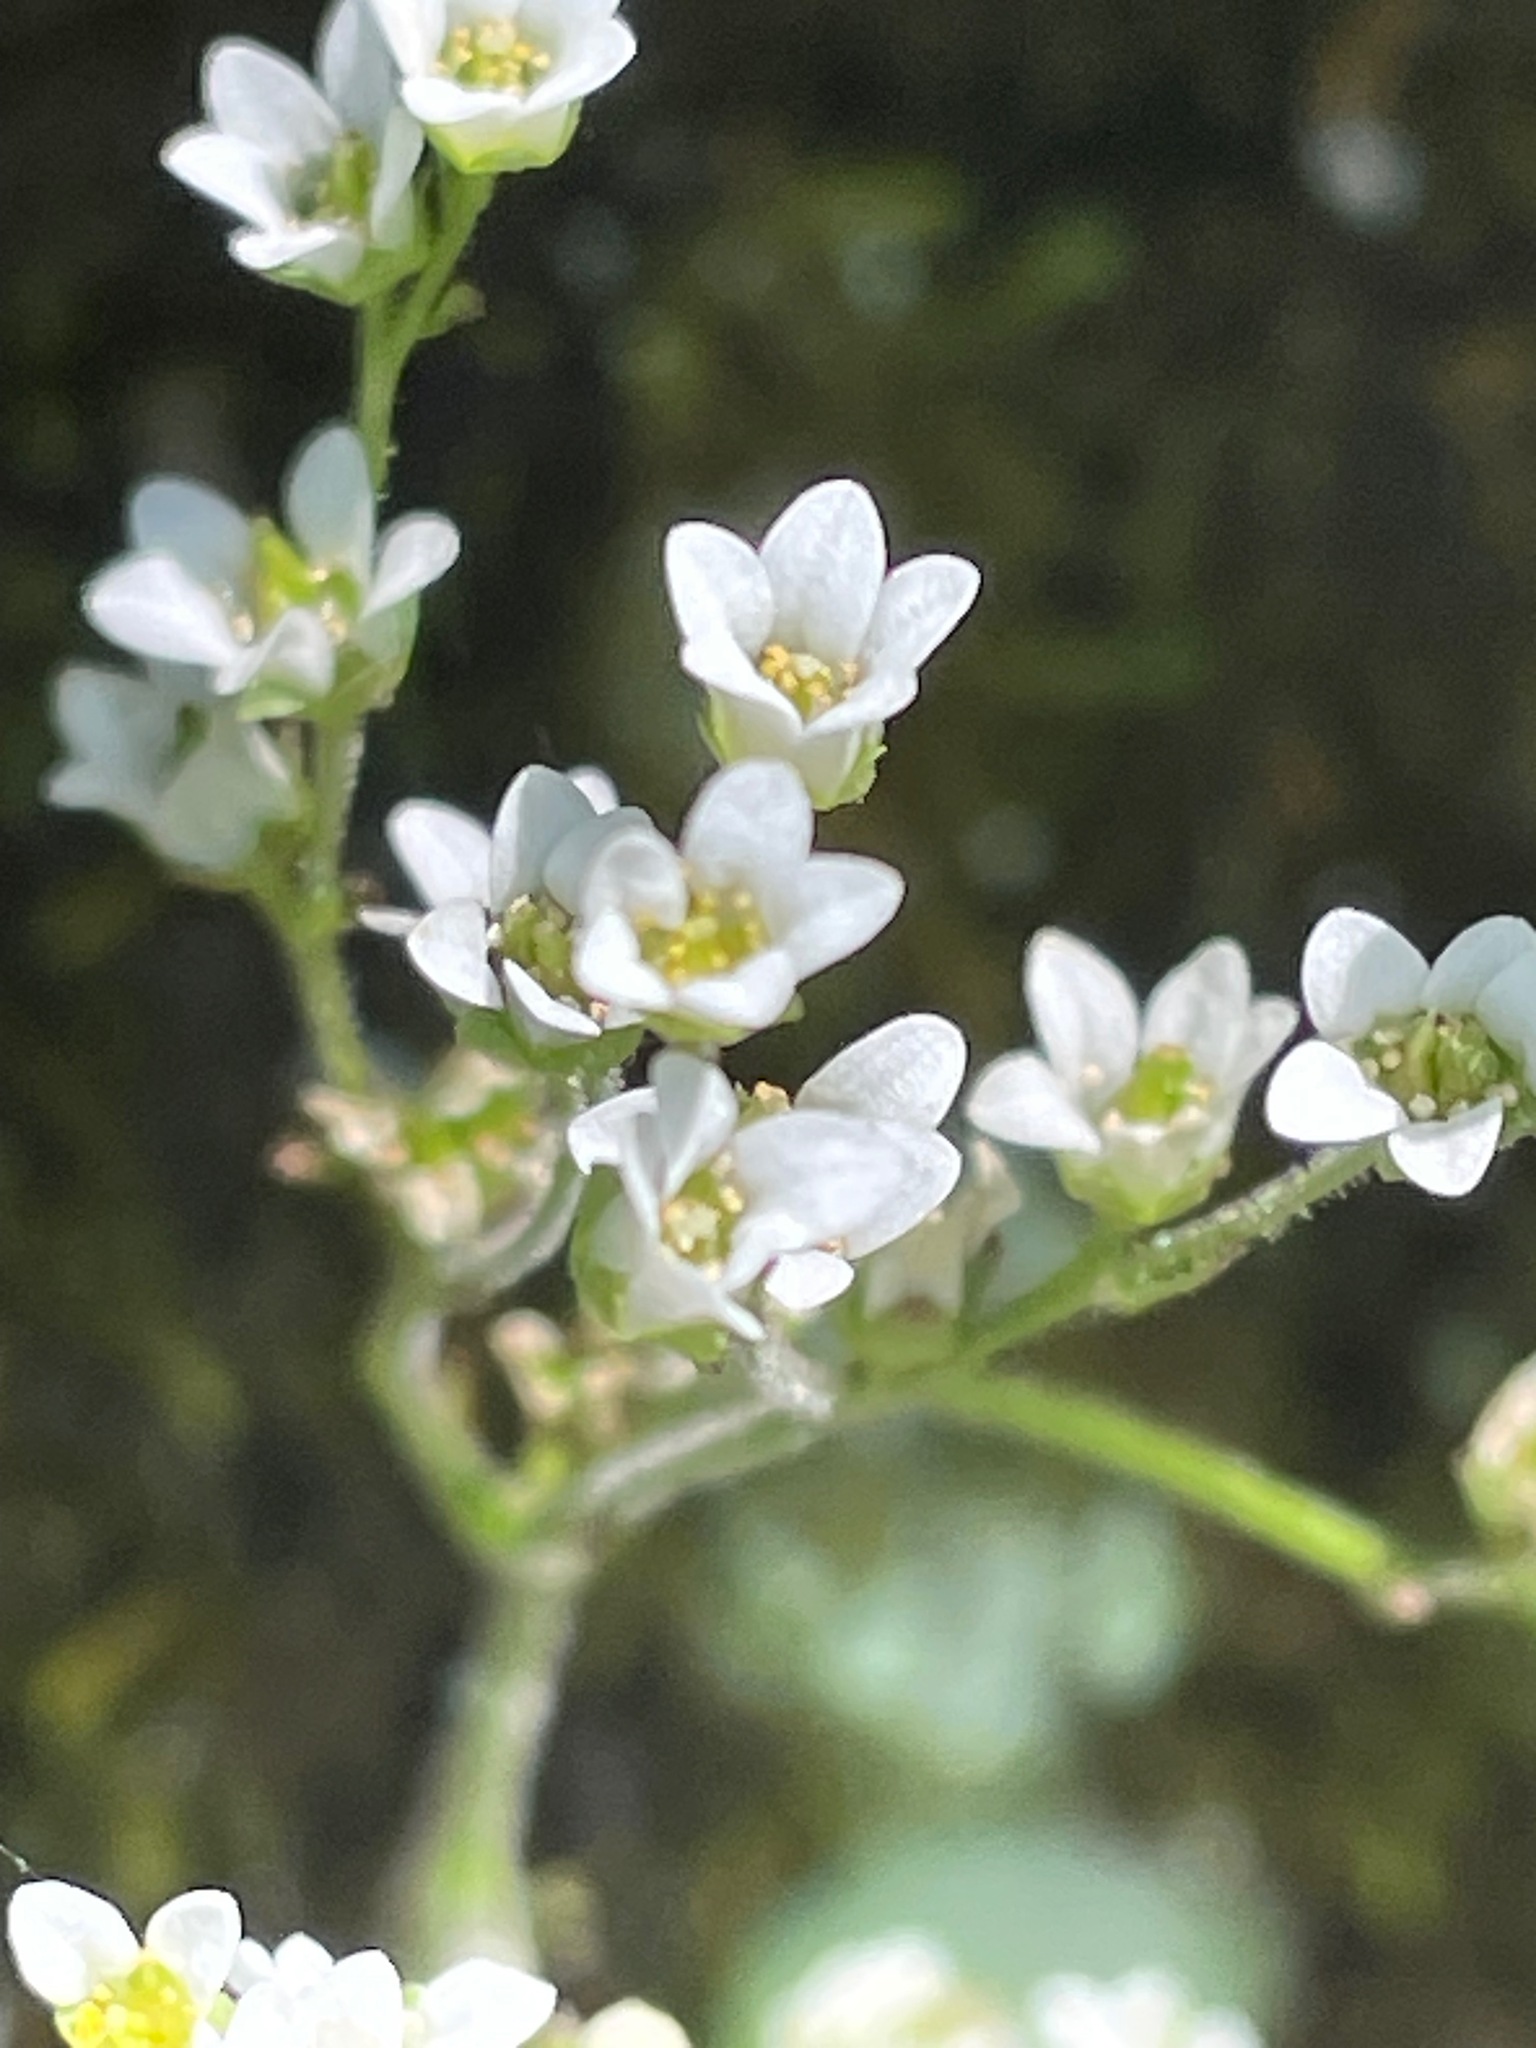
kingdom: Plantae
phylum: Tracheophyta
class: Magnoliopsida
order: Saxifragales
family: Saxifragaceae
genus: Micranthes
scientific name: Micranthes virginiensis
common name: Early saxifrage
